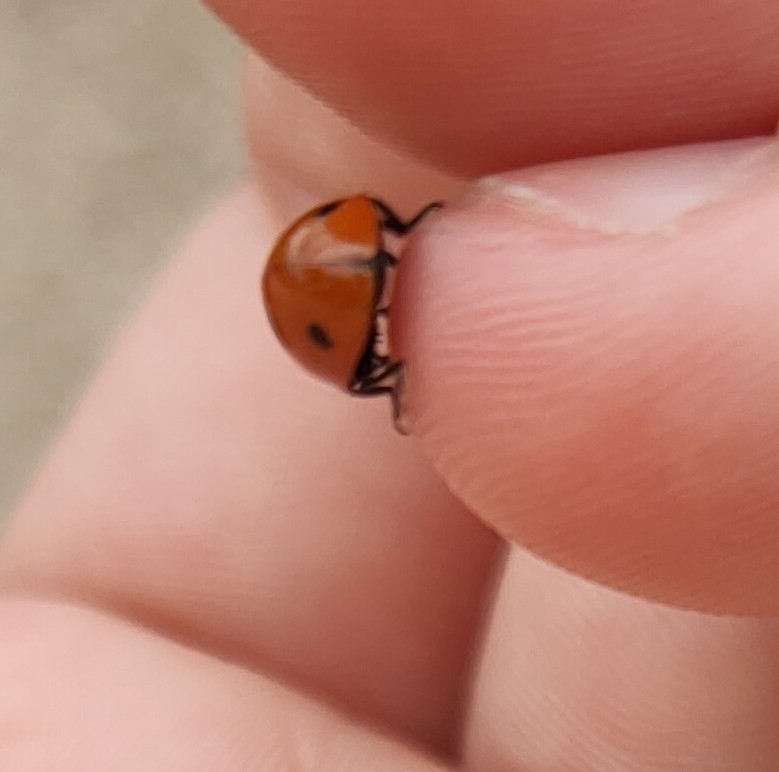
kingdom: Animalia
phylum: Arthropoda
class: Insecta
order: Coleoptera
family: Coccinellidae
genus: Coccinella
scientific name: Coccinella septempunctata
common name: Sevenspotted lady beetle
